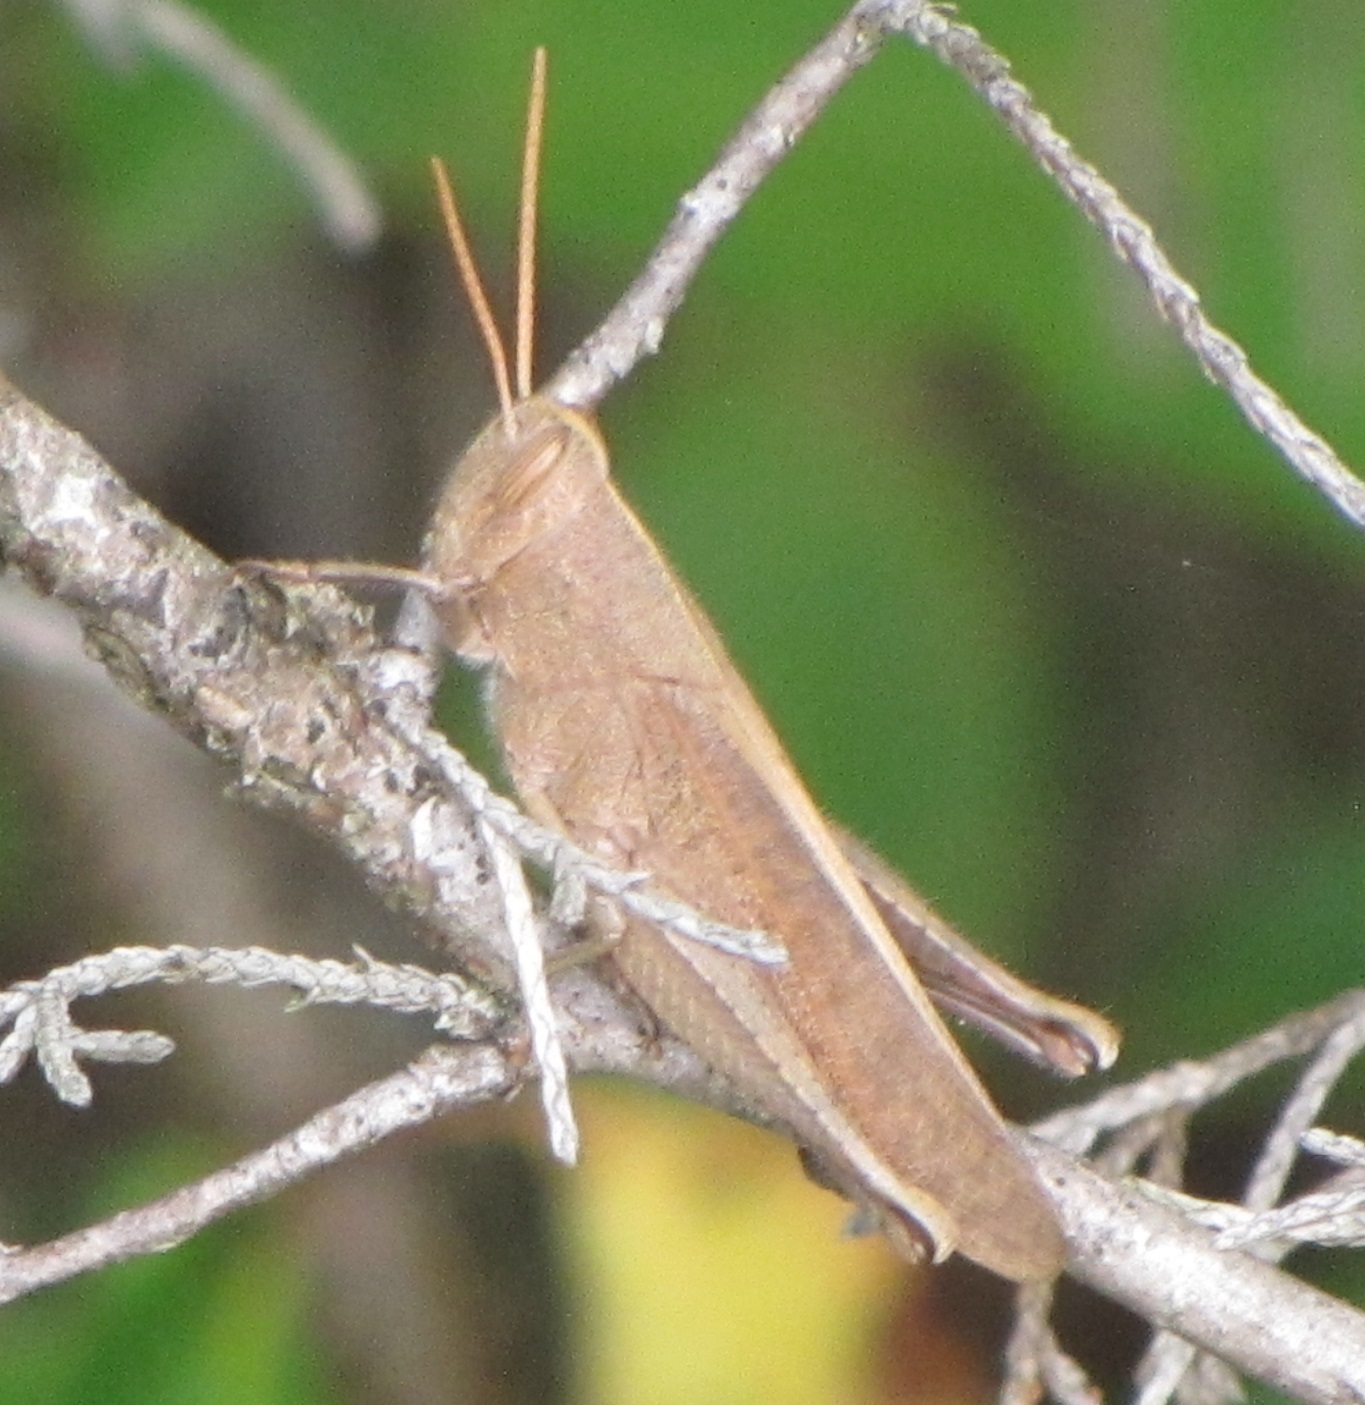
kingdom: Animalia
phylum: Arthropoda
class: Insecta
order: Orthoptera
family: Acrididae
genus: Schistocerca
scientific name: Schistocerca damnifica
